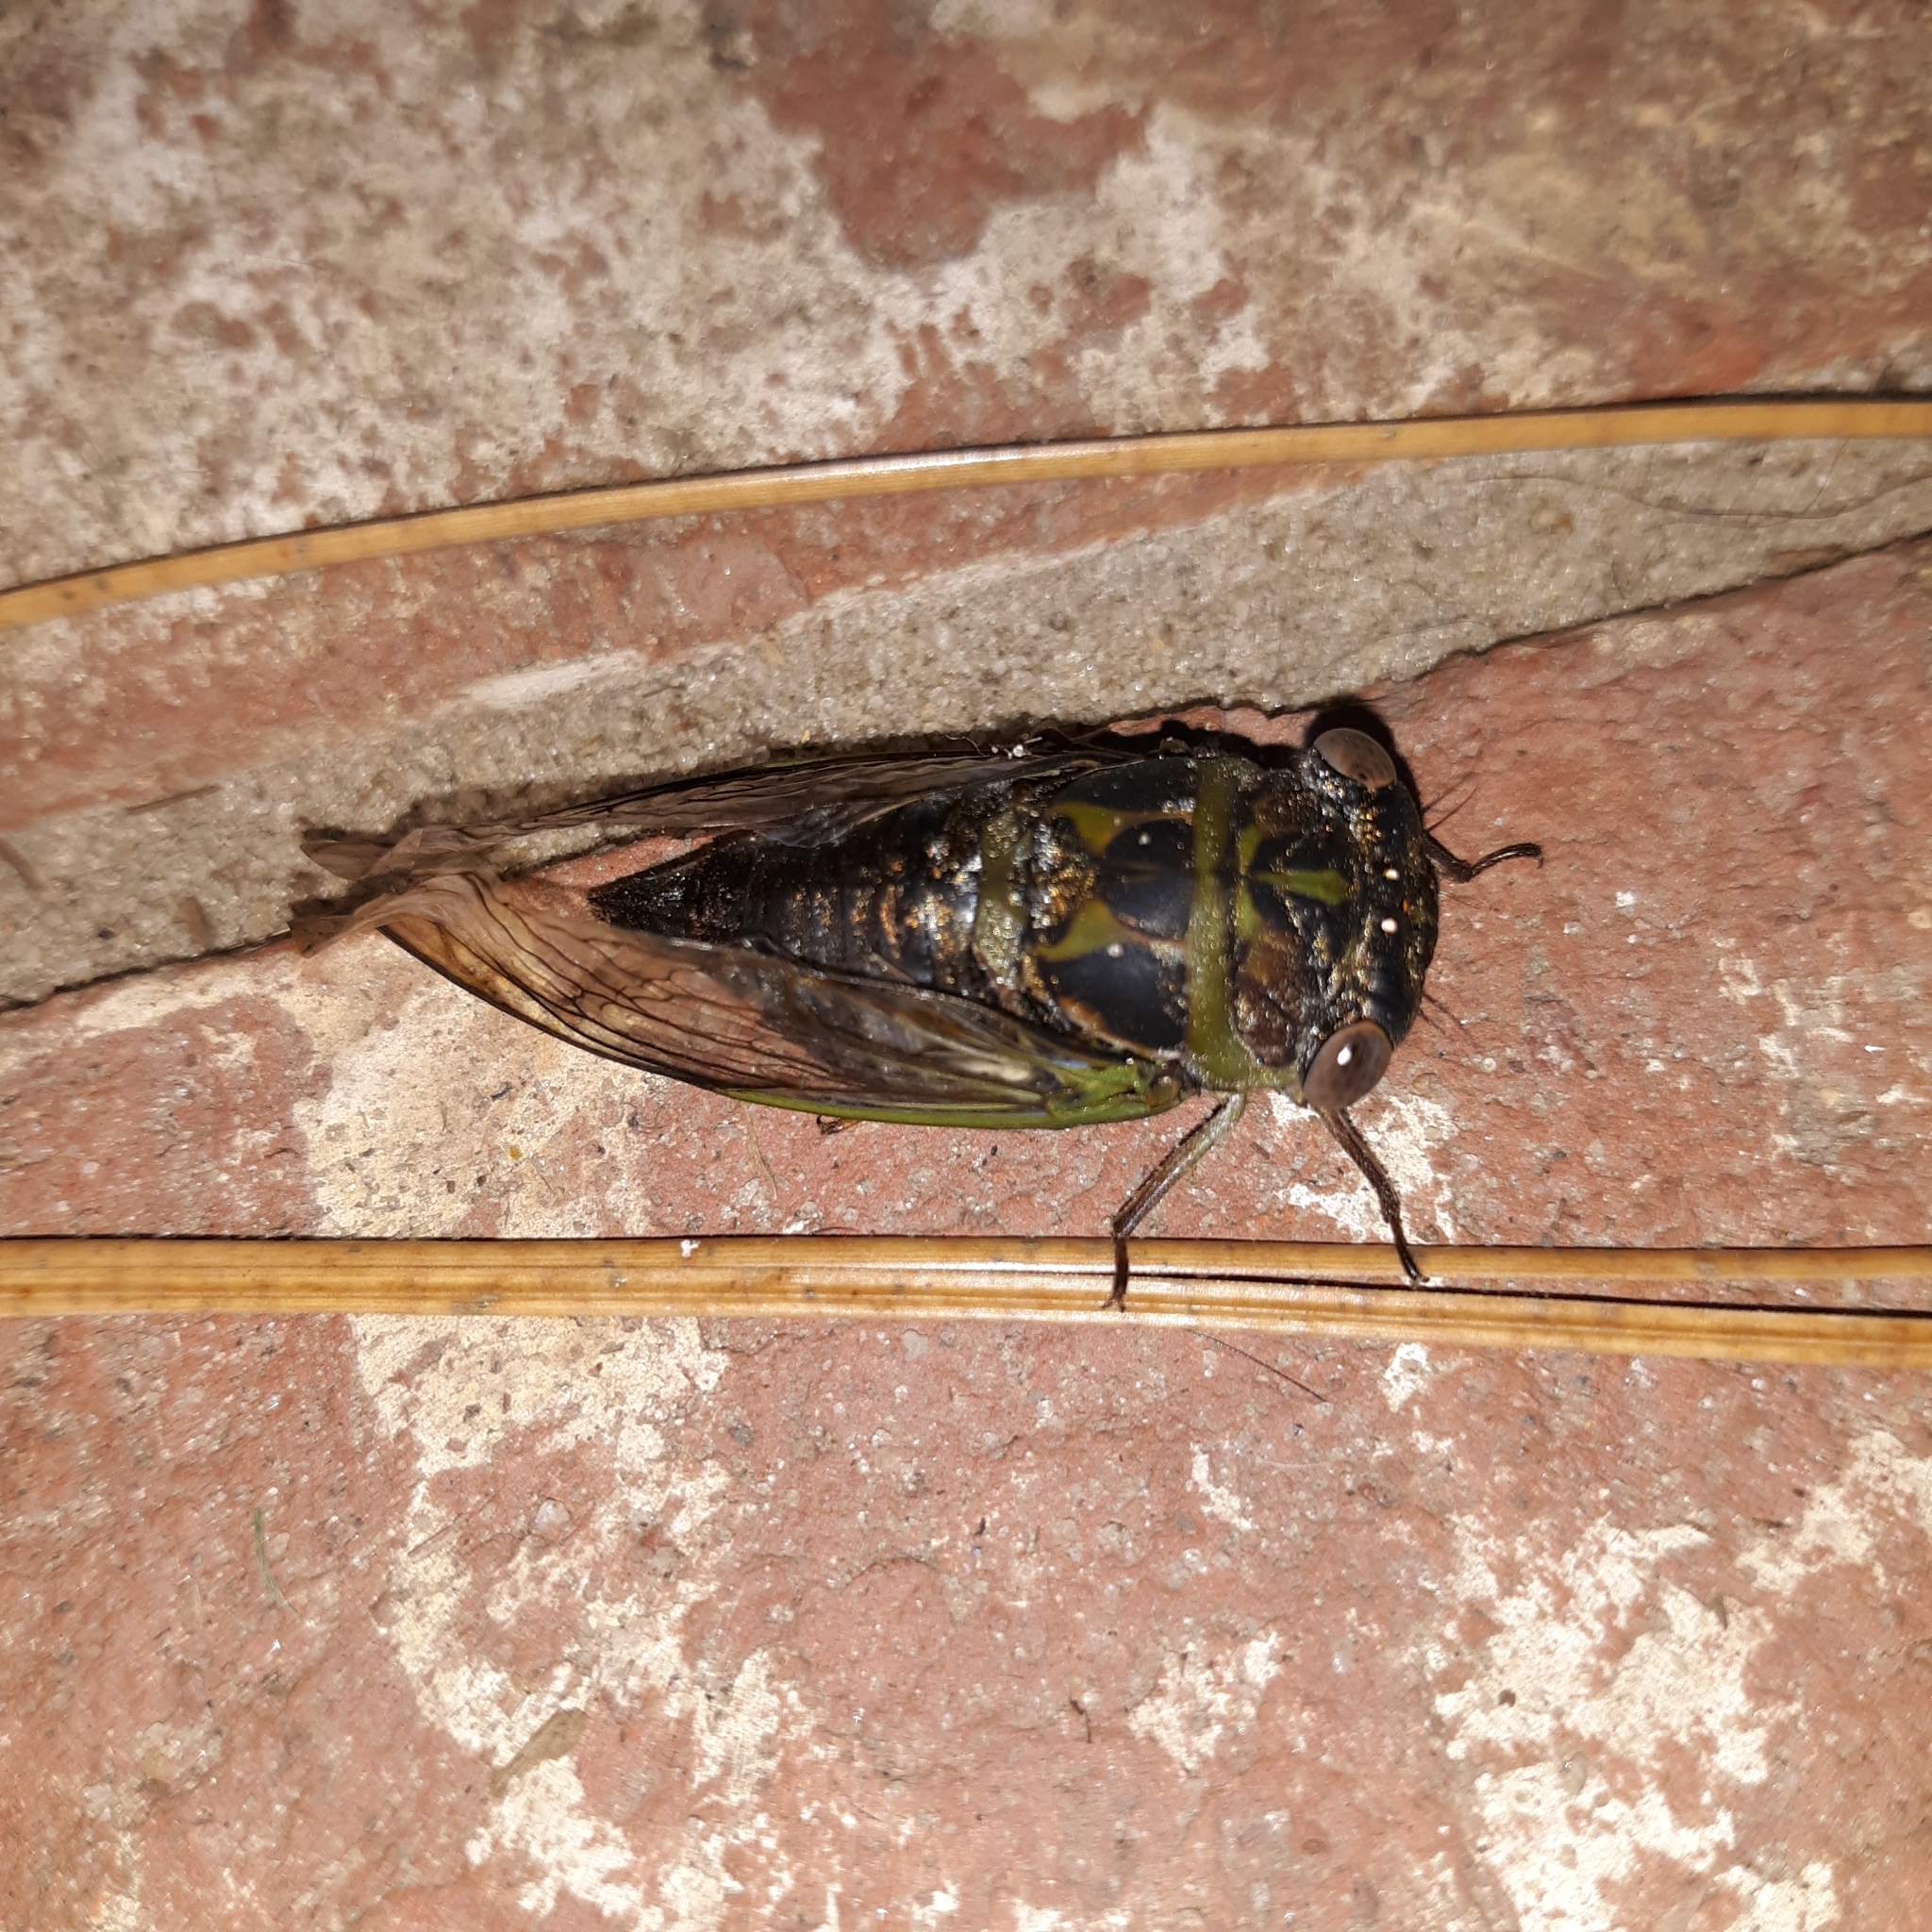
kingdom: Animalia
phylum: Arthropoda
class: Insecta
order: Hemiptera
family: Cicadidae
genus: Neotibicen
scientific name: Neotibicen davisi
